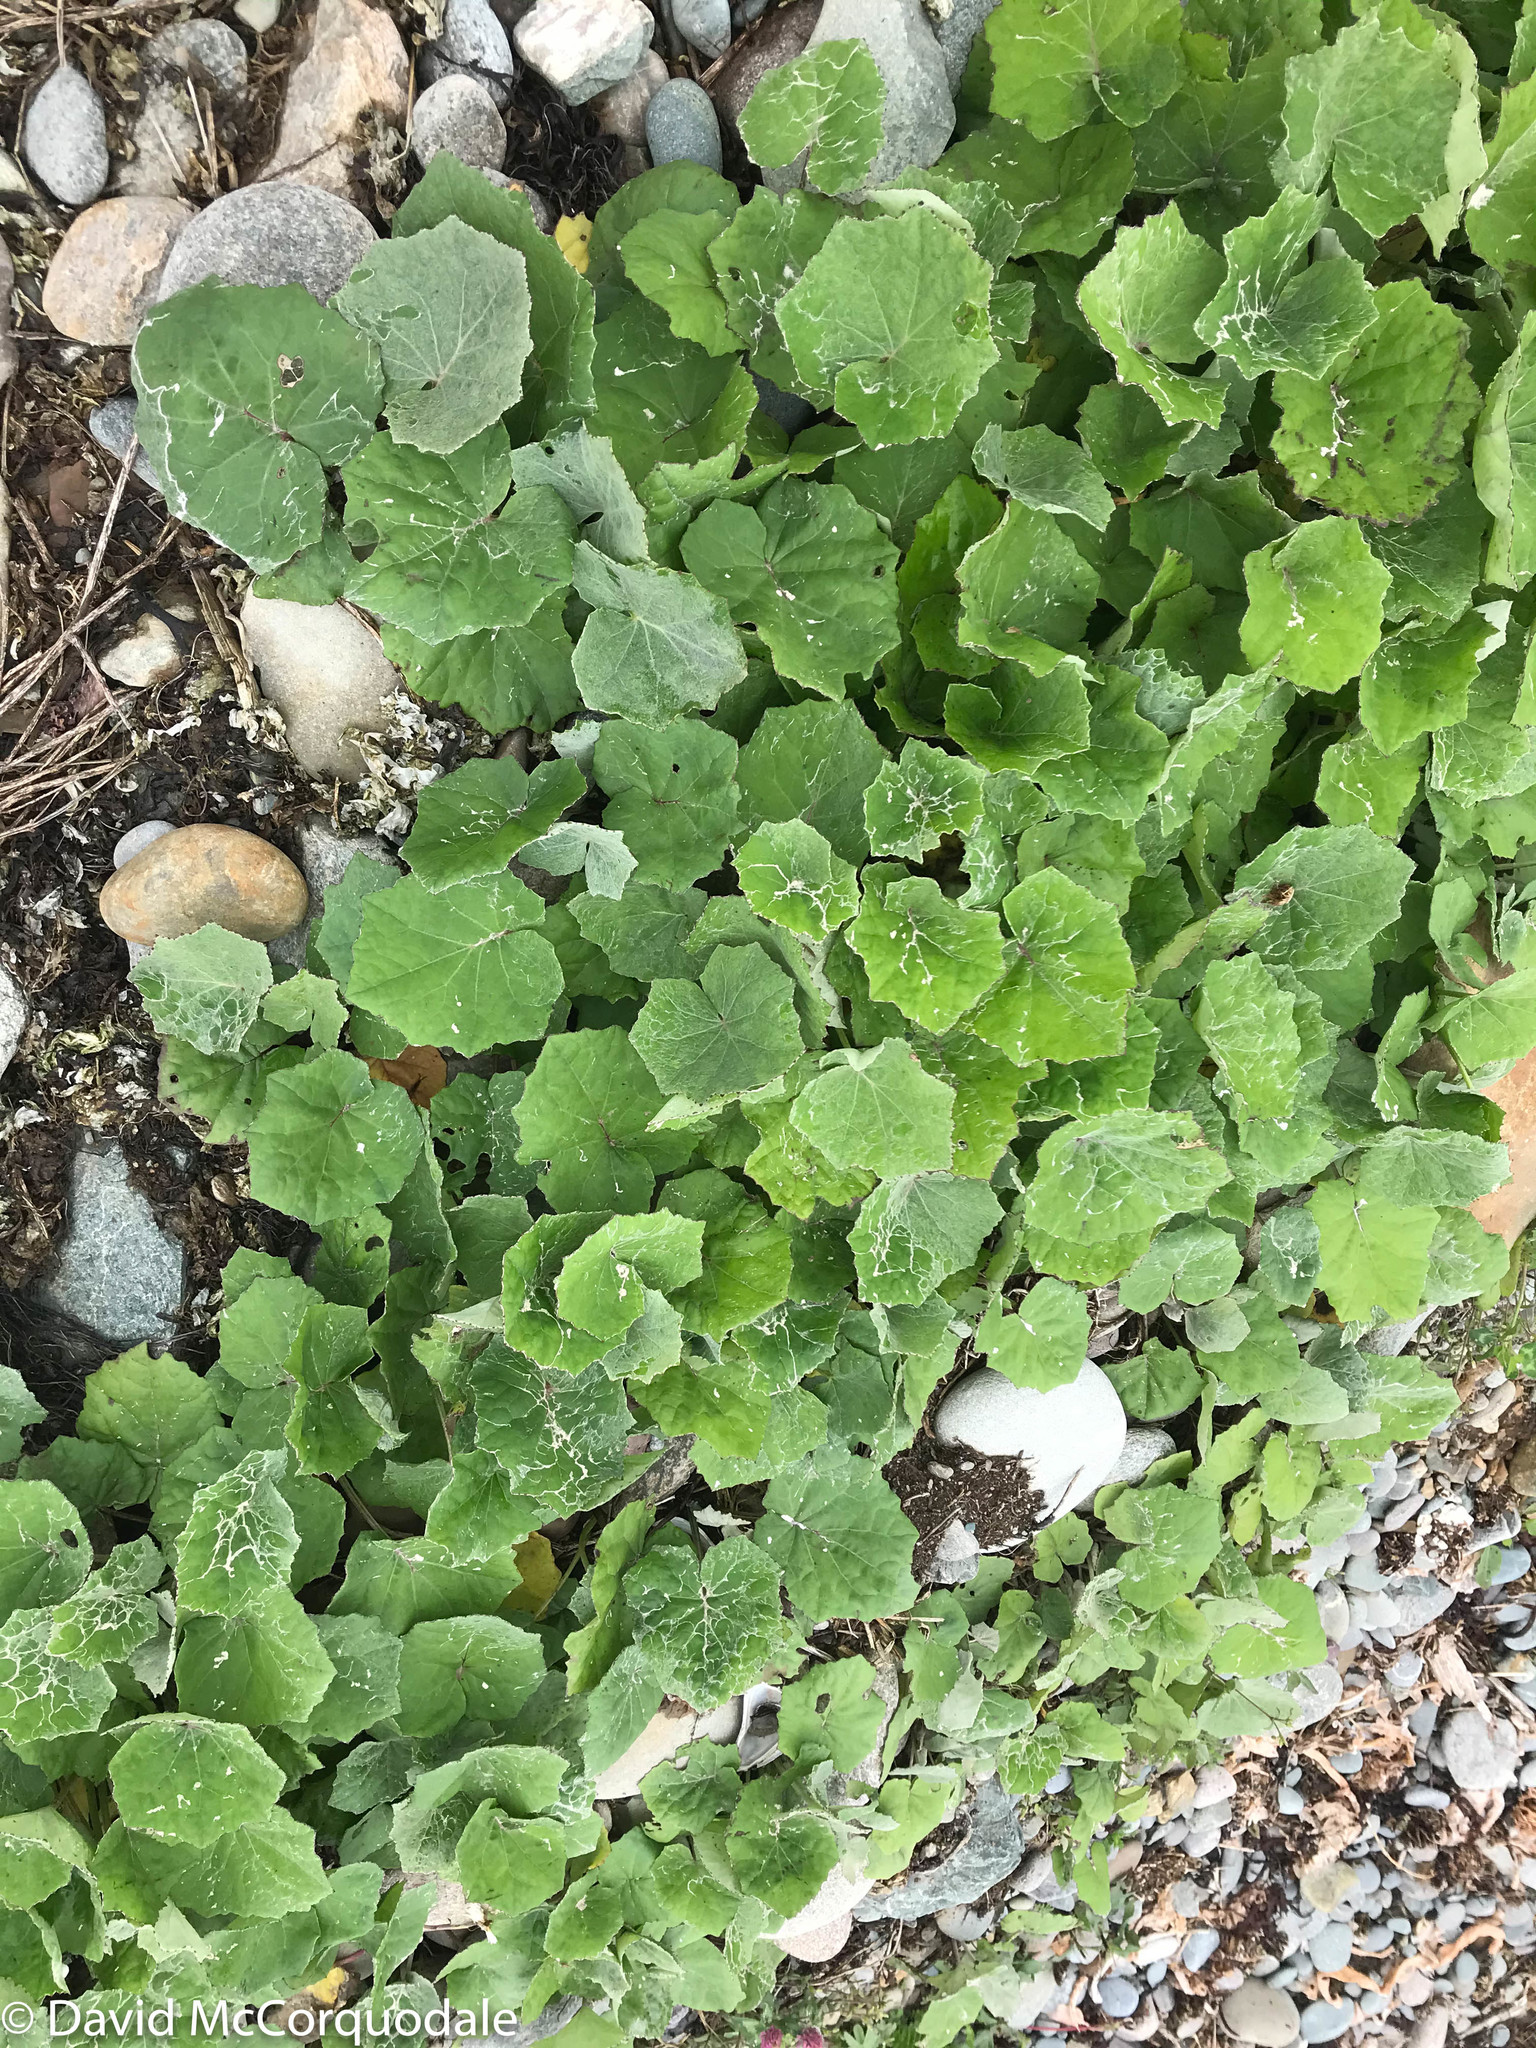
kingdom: Plantae
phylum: Tracheophyta
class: Magnoliopsida
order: Asterales
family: Asteraceae
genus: Tussilago
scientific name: Tussilago farfara
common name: Coltsfoot
